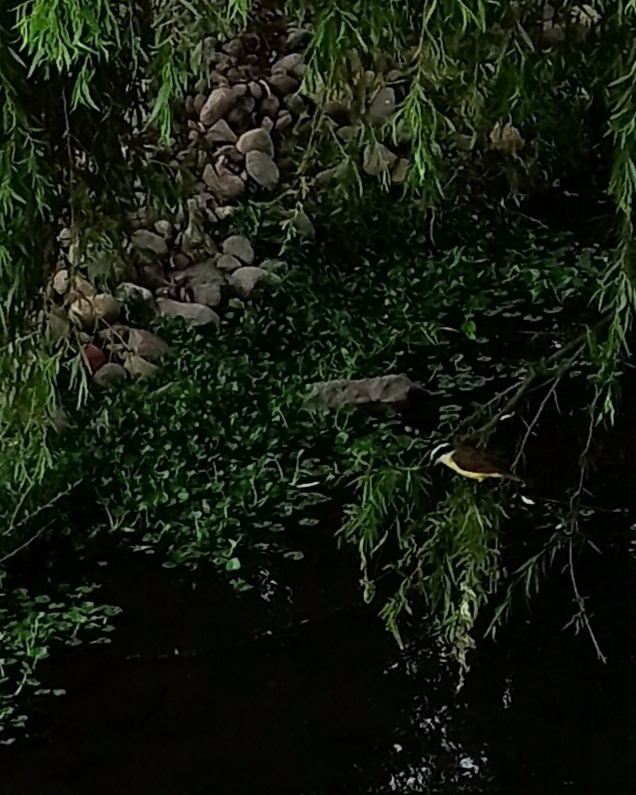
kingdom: Animalia
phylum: Chordata
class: Aves
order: Passeriformes
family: Tyrannidae
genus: Pitangus
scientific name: Pitangus sulphuratus
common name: Great kiskadee
